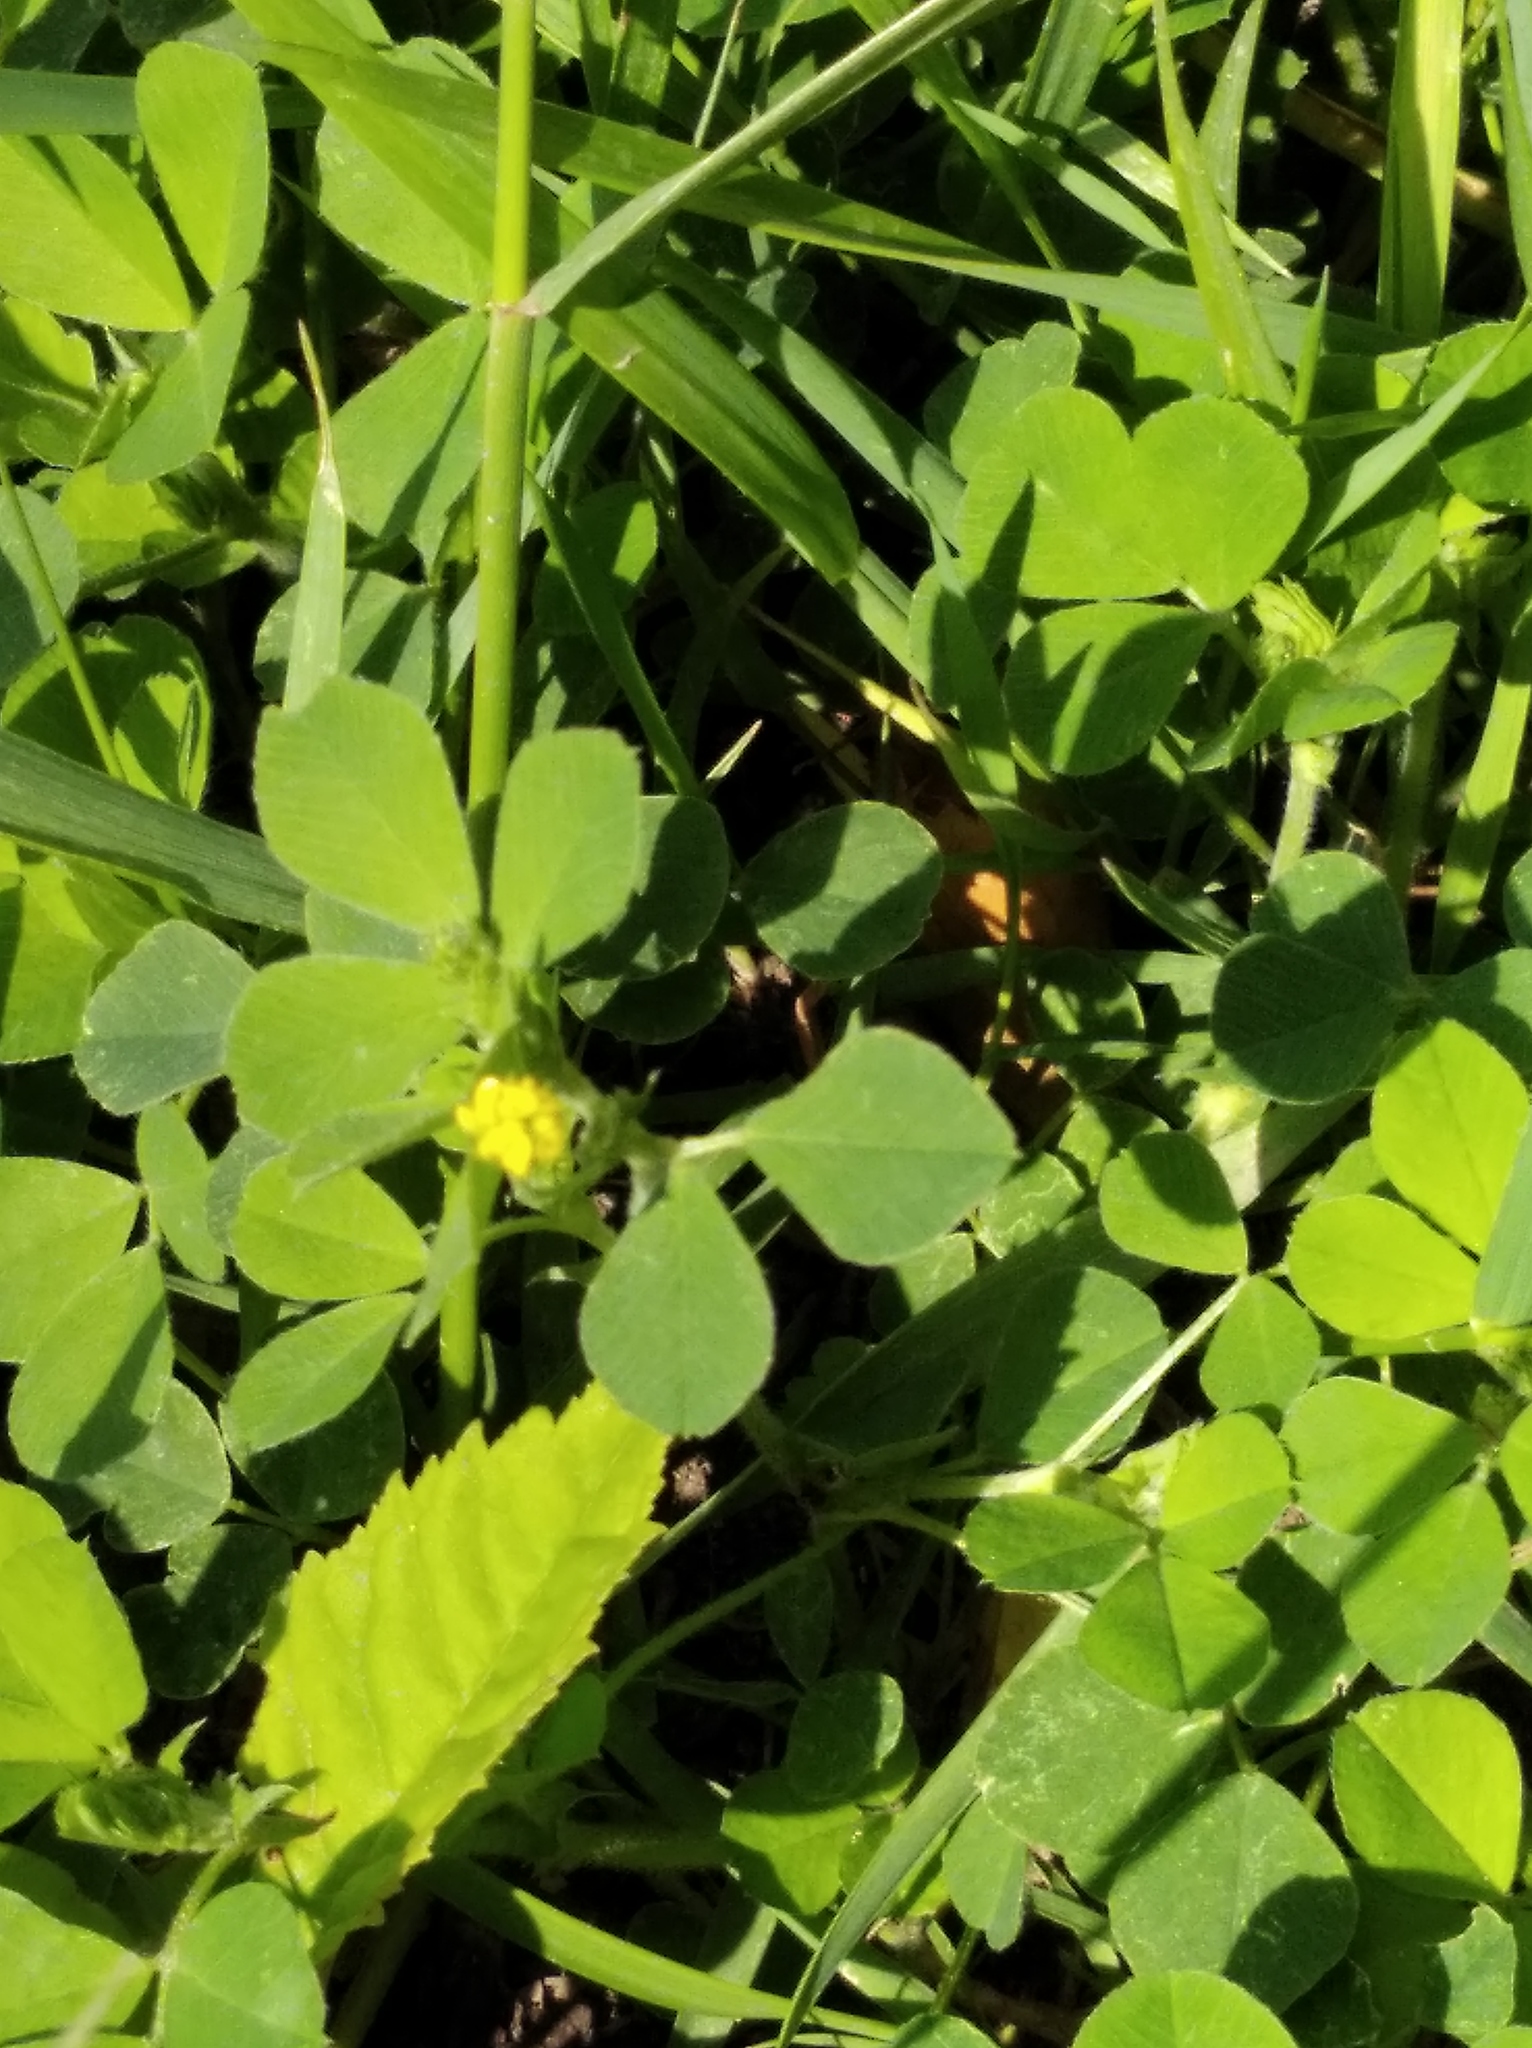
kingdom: Plantae
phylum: Tracheophyta
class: Magnoliopsida
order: Fabales
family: Fabaceae
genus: Medicago
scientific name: Medicago lupulina
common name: Black medick
